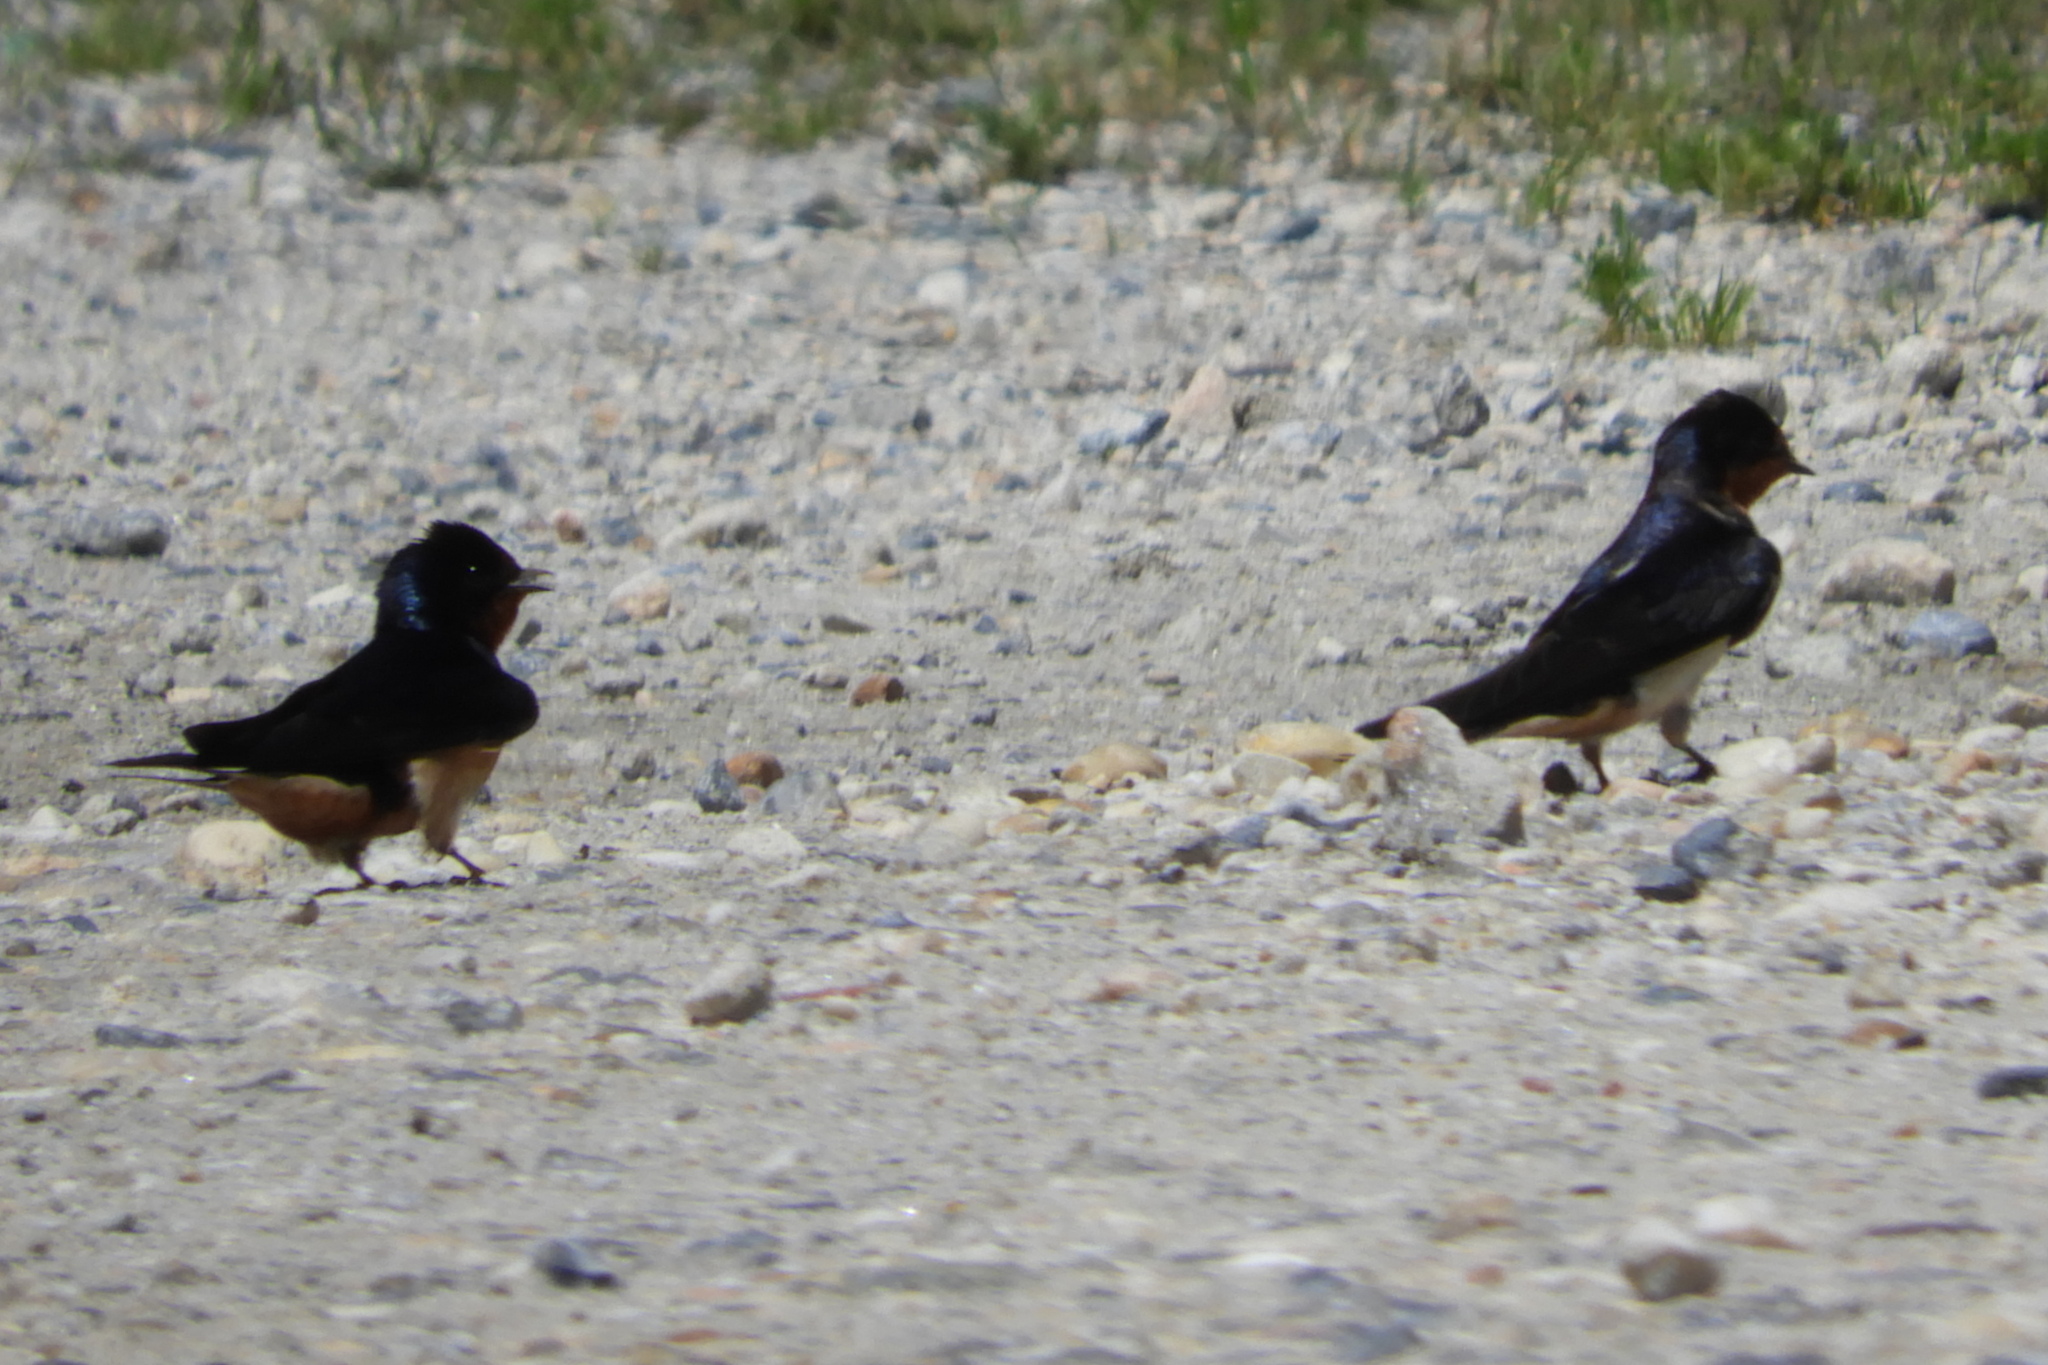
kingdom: Animalia
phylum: Chordata
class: Aves
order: Passeriformes
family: Hirundinidae
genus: Hirundo
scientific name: Hirundo rustica
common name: Barn swallow
